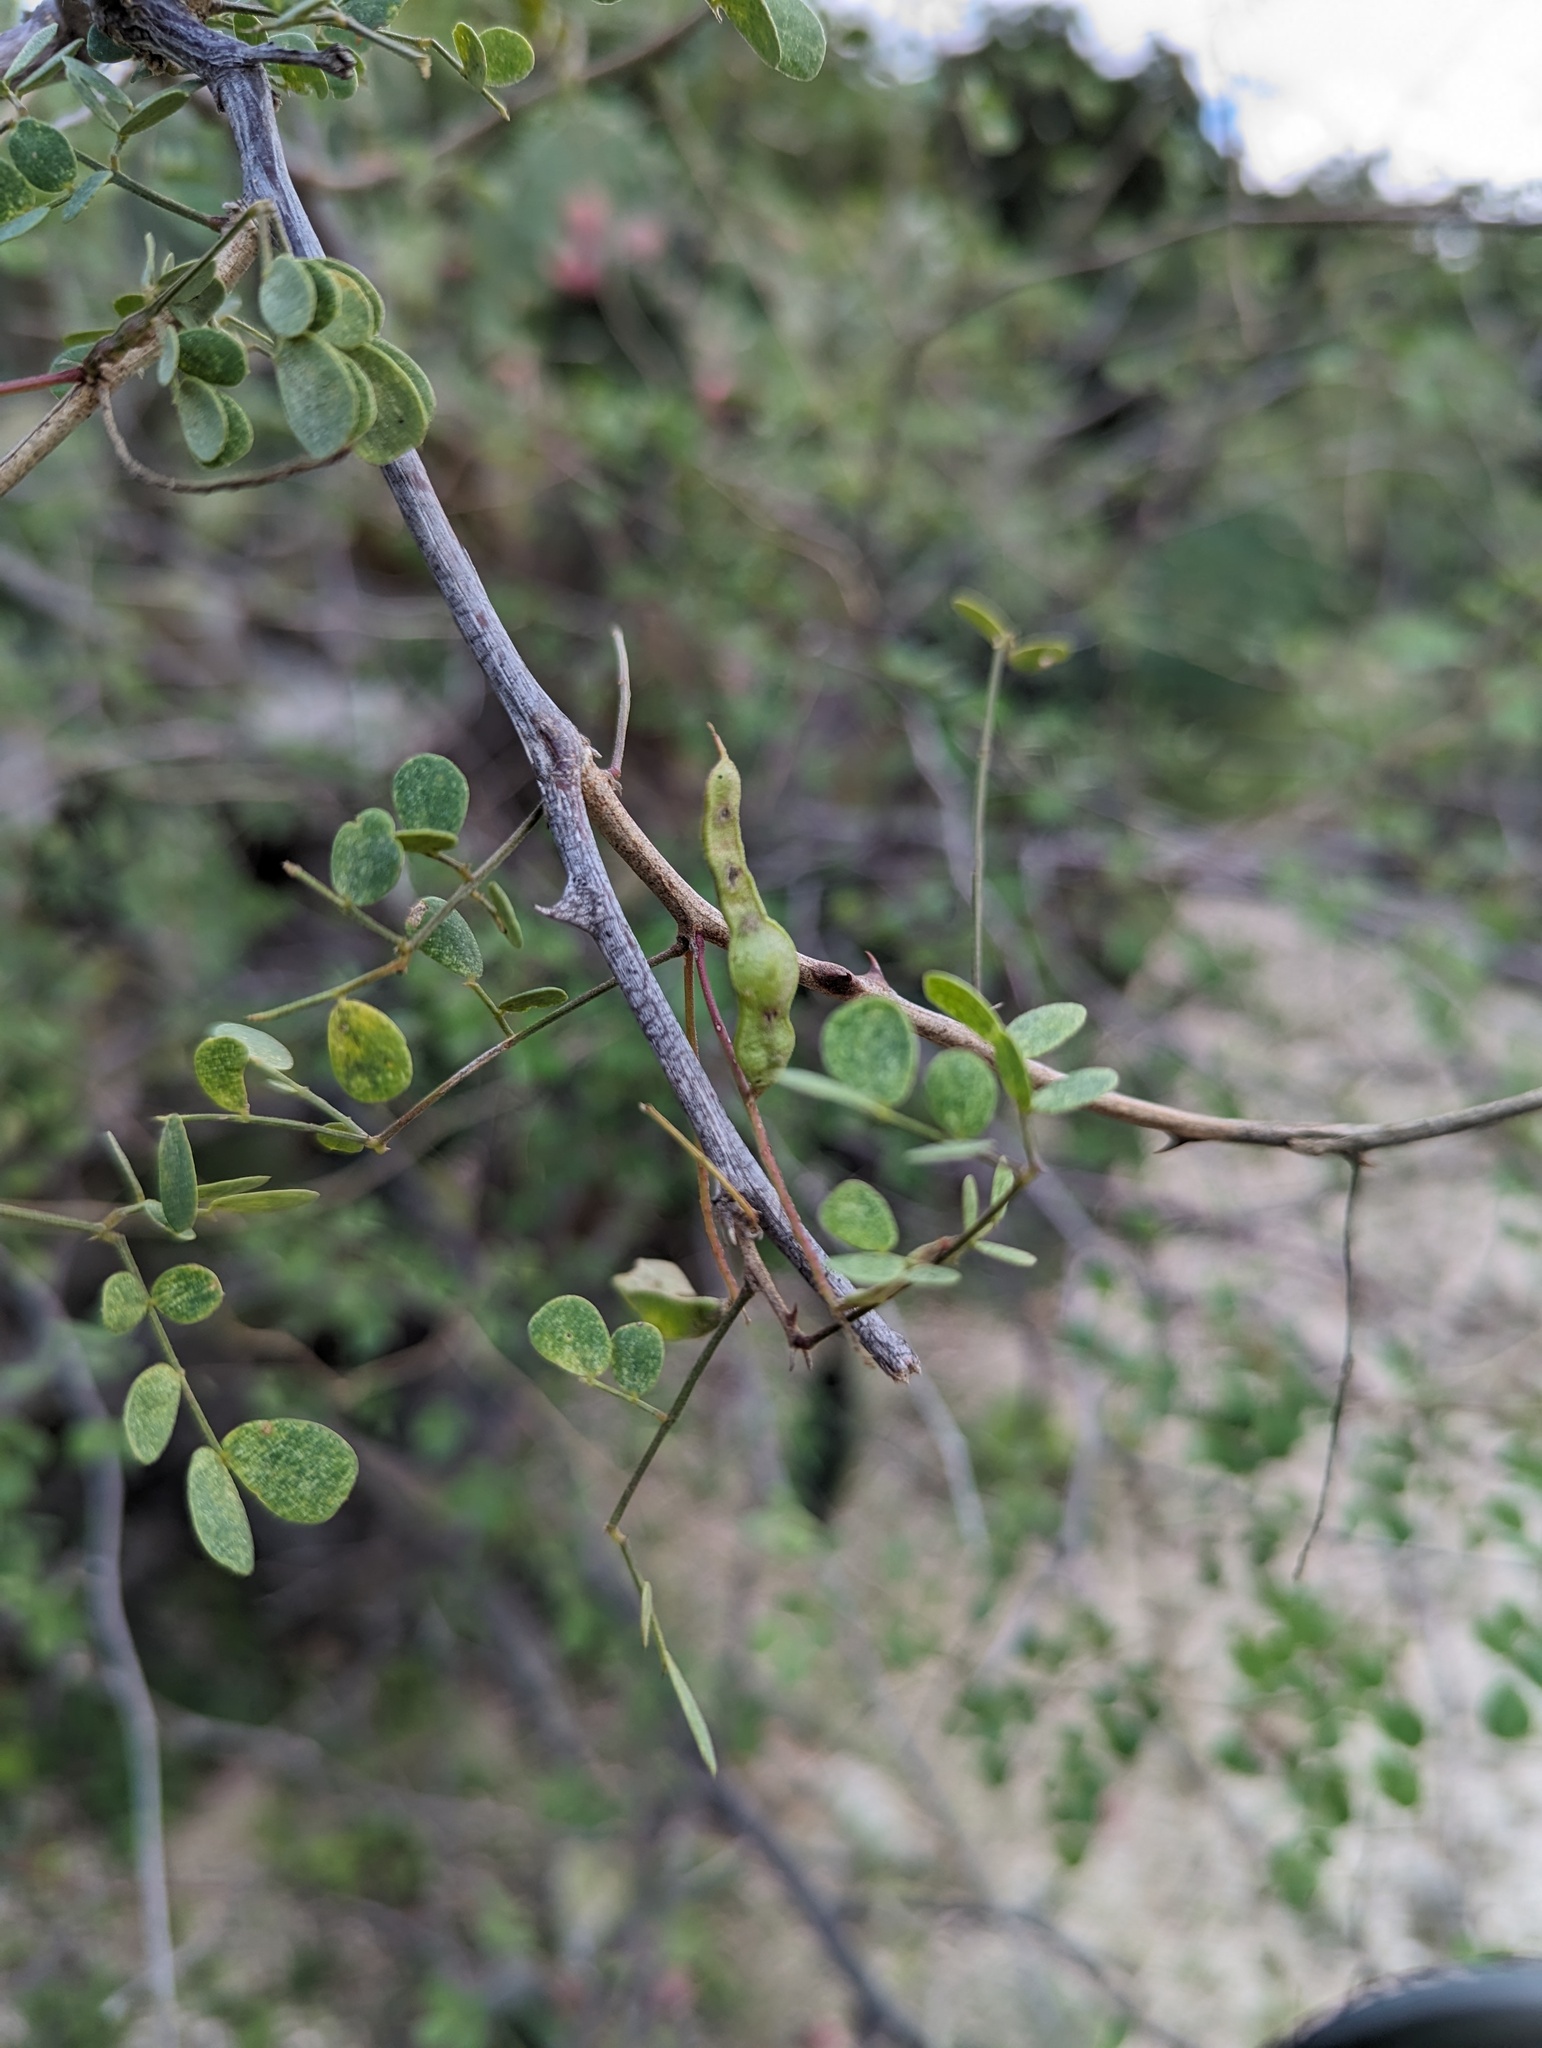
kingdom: Plantae
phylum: Tracheophyta
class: Magnoliopsida
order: Fabales
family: Fabaceae
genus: Mimosa
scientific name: Mimosa distachya
